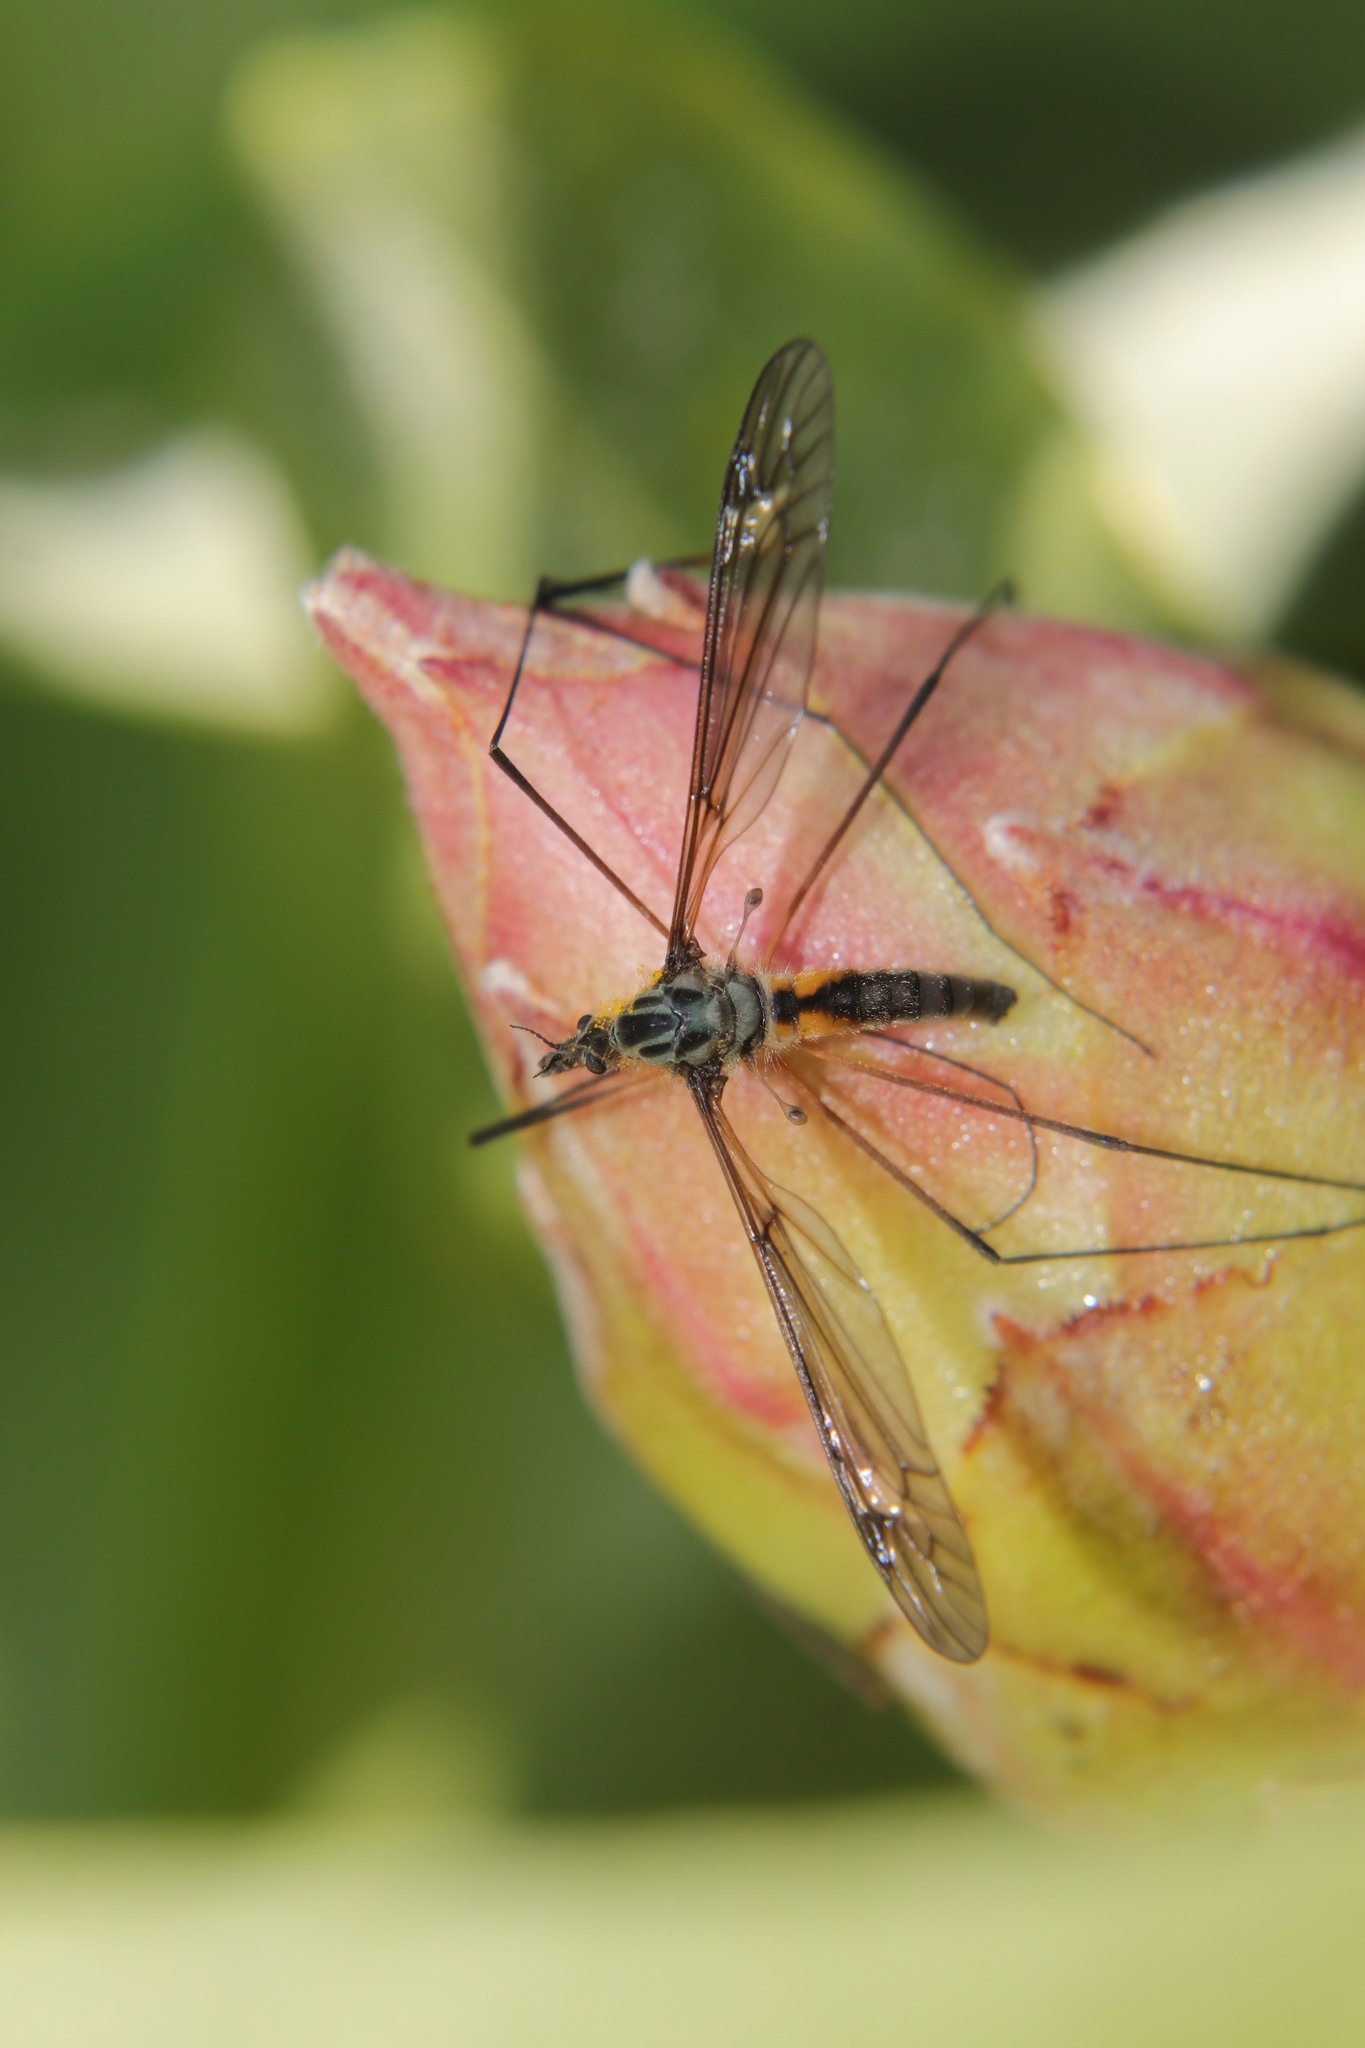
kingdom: Animalia
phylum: Arthropoda
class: Insecta
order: Diptera
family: Tipulidae
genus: Leptotarsus
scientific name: Leptotarsus rufibasis
